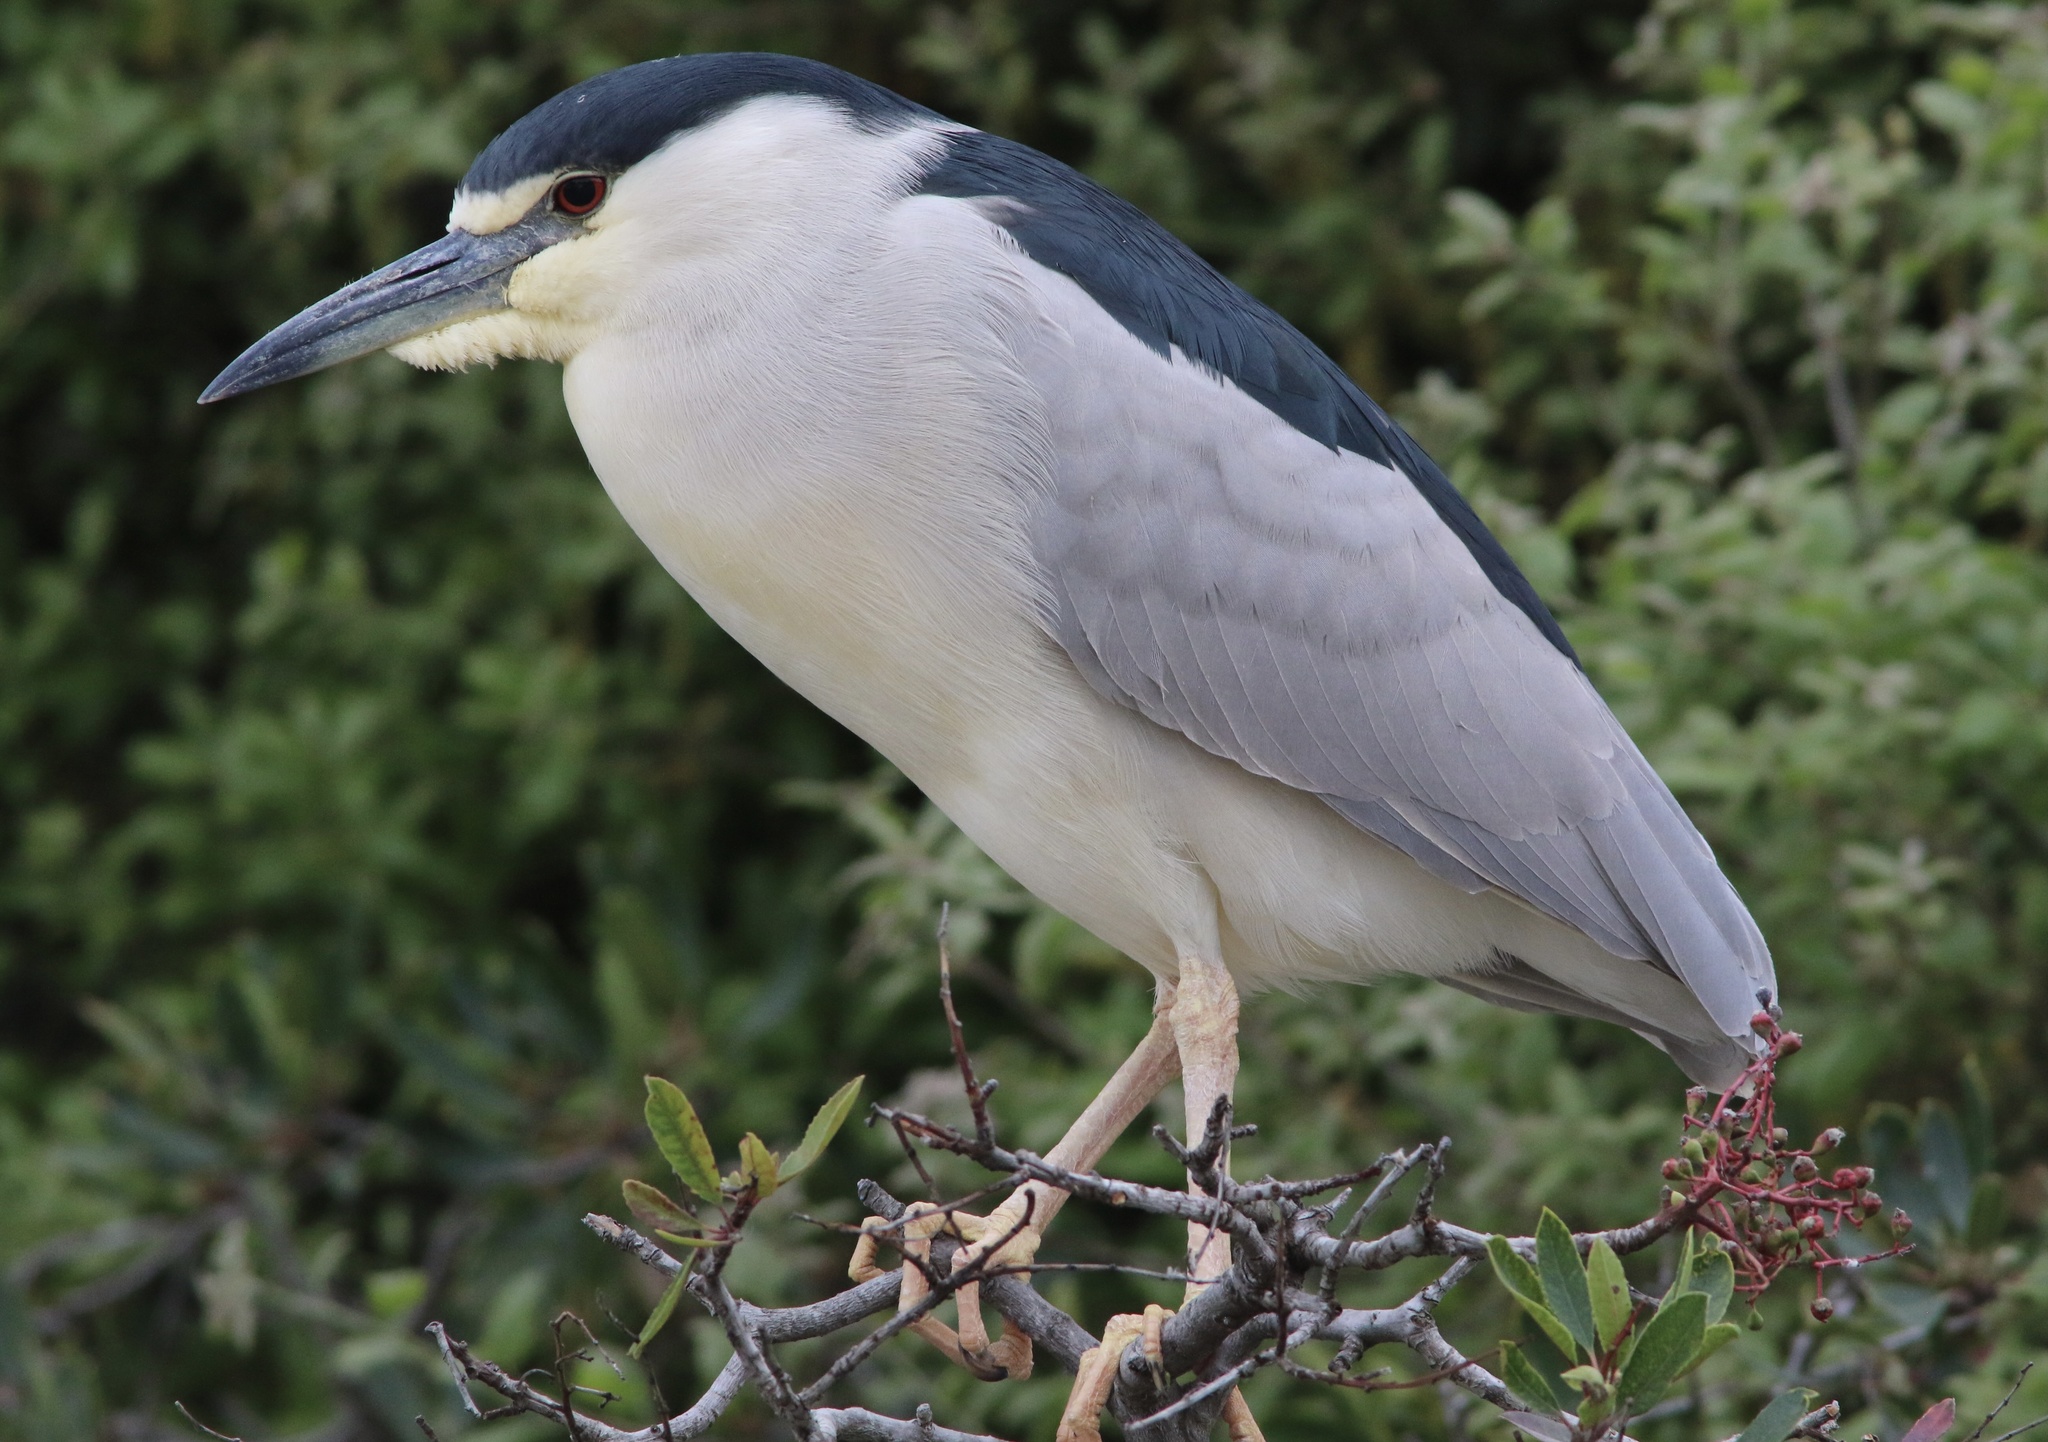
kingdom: Animalia
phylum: Chordata
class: Aves
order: Pelecaniformes
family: Ardeidae
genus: Nycticorax
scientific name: Nycticorax nycticorax
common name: Black-crowned night heron
